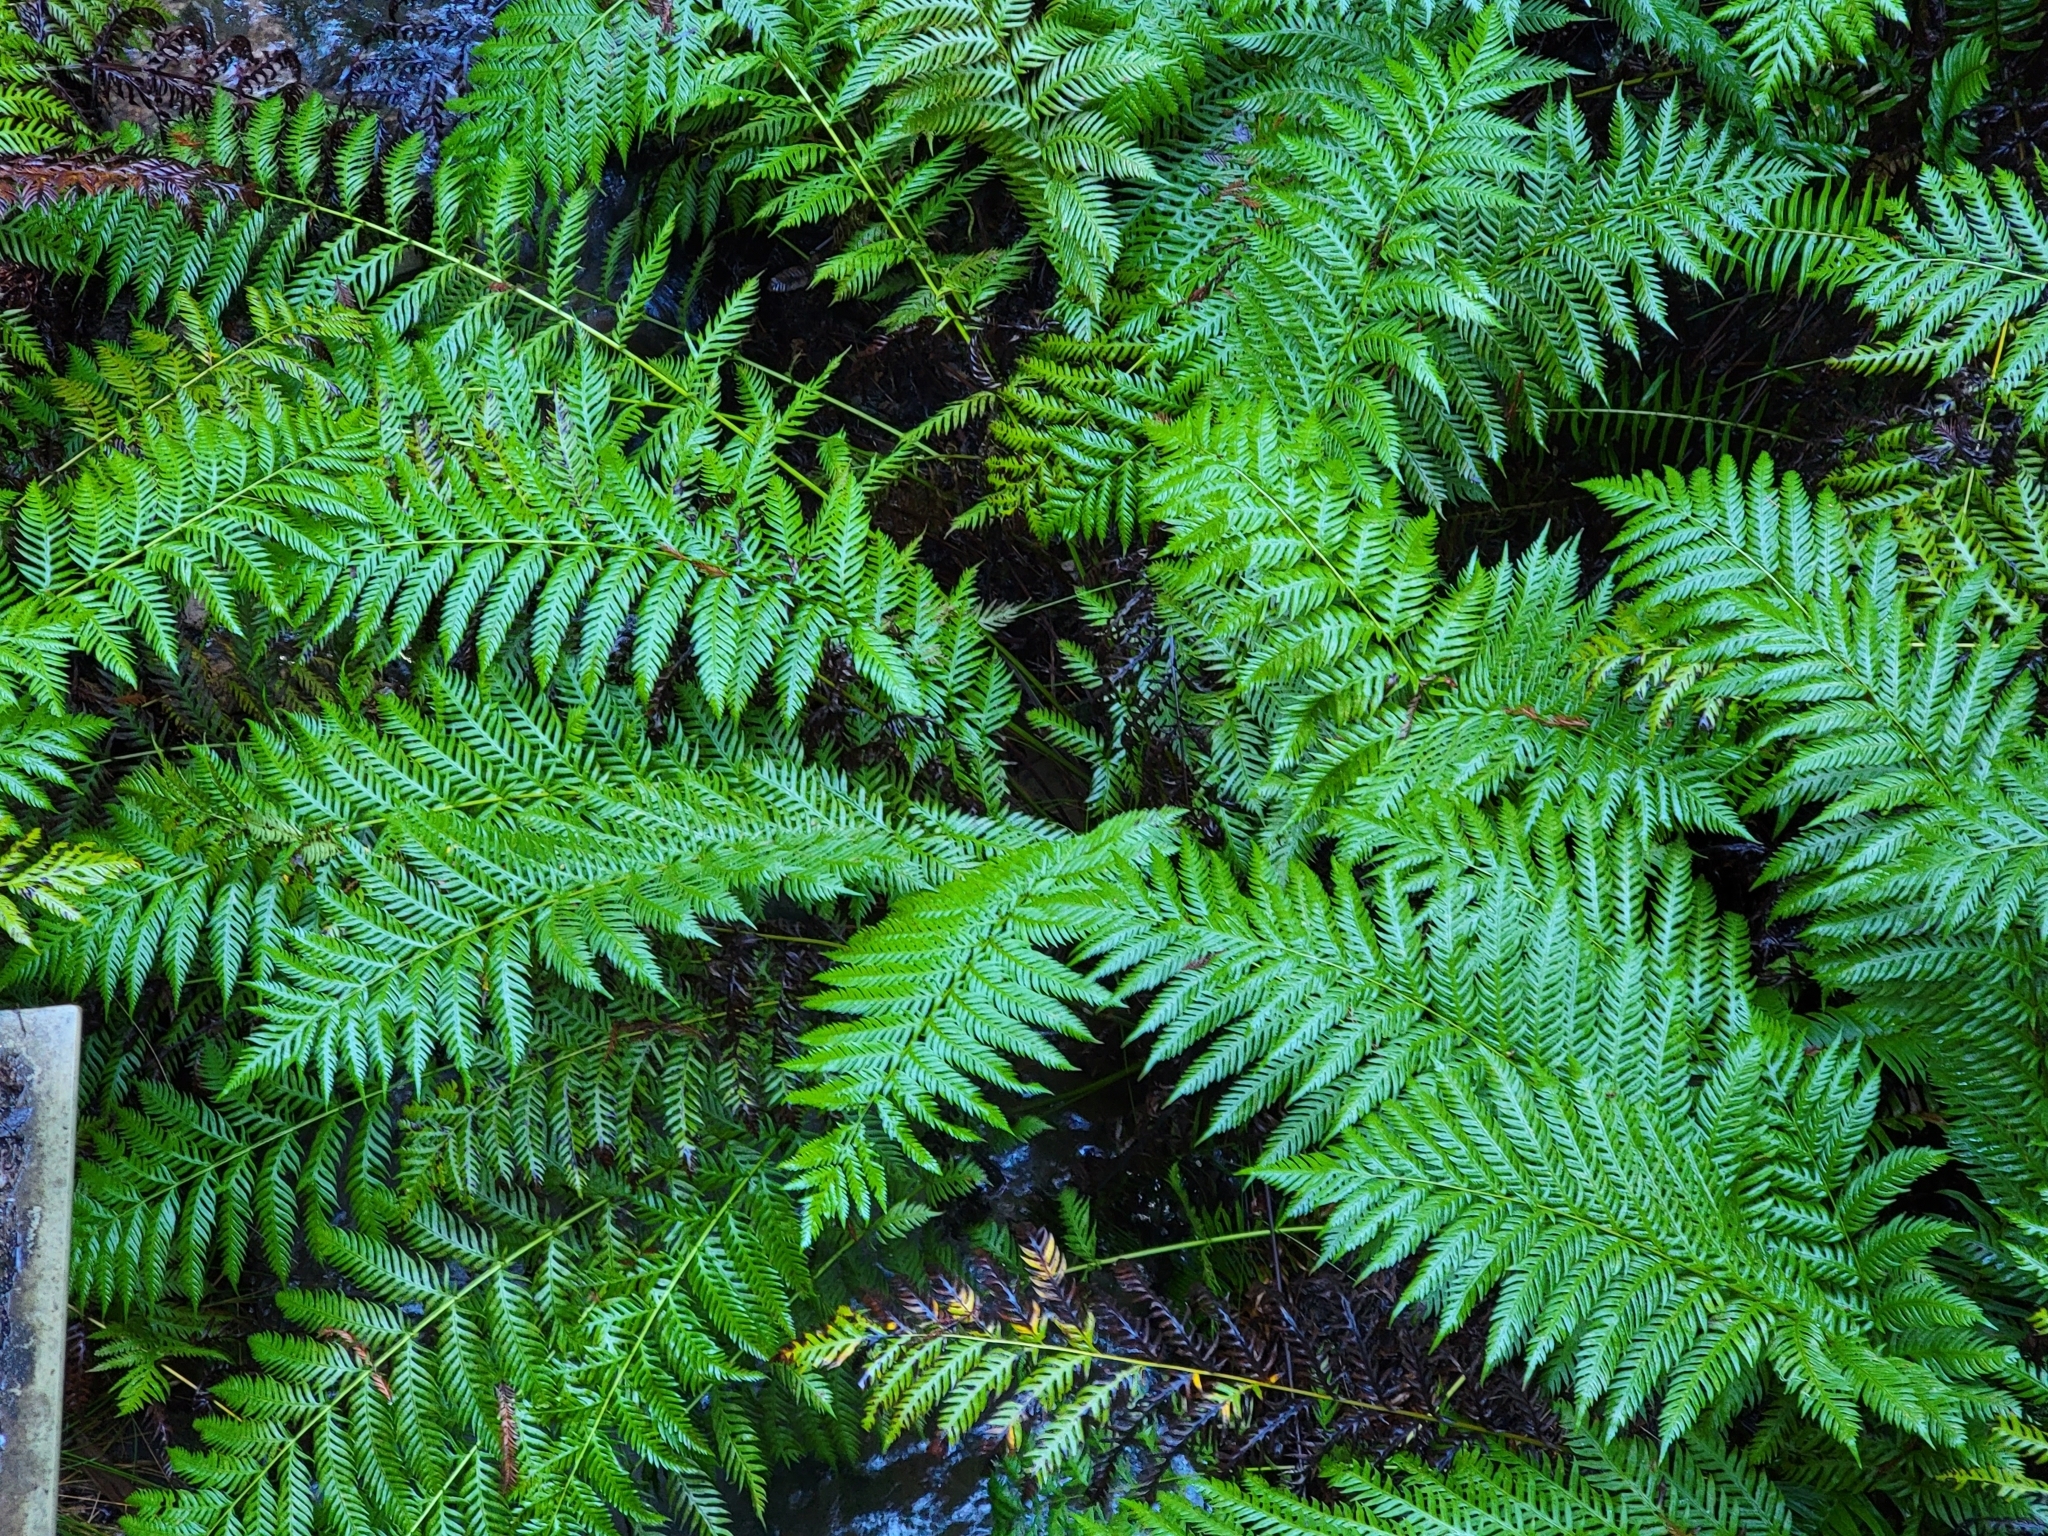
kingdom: Plantae
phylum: Tracheophyta
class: Polypodiopsida
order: Polypodiales
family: Blechnaceae
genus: Woodwardia
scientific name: Woodwardia fimbriata
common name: Giant chain fern
